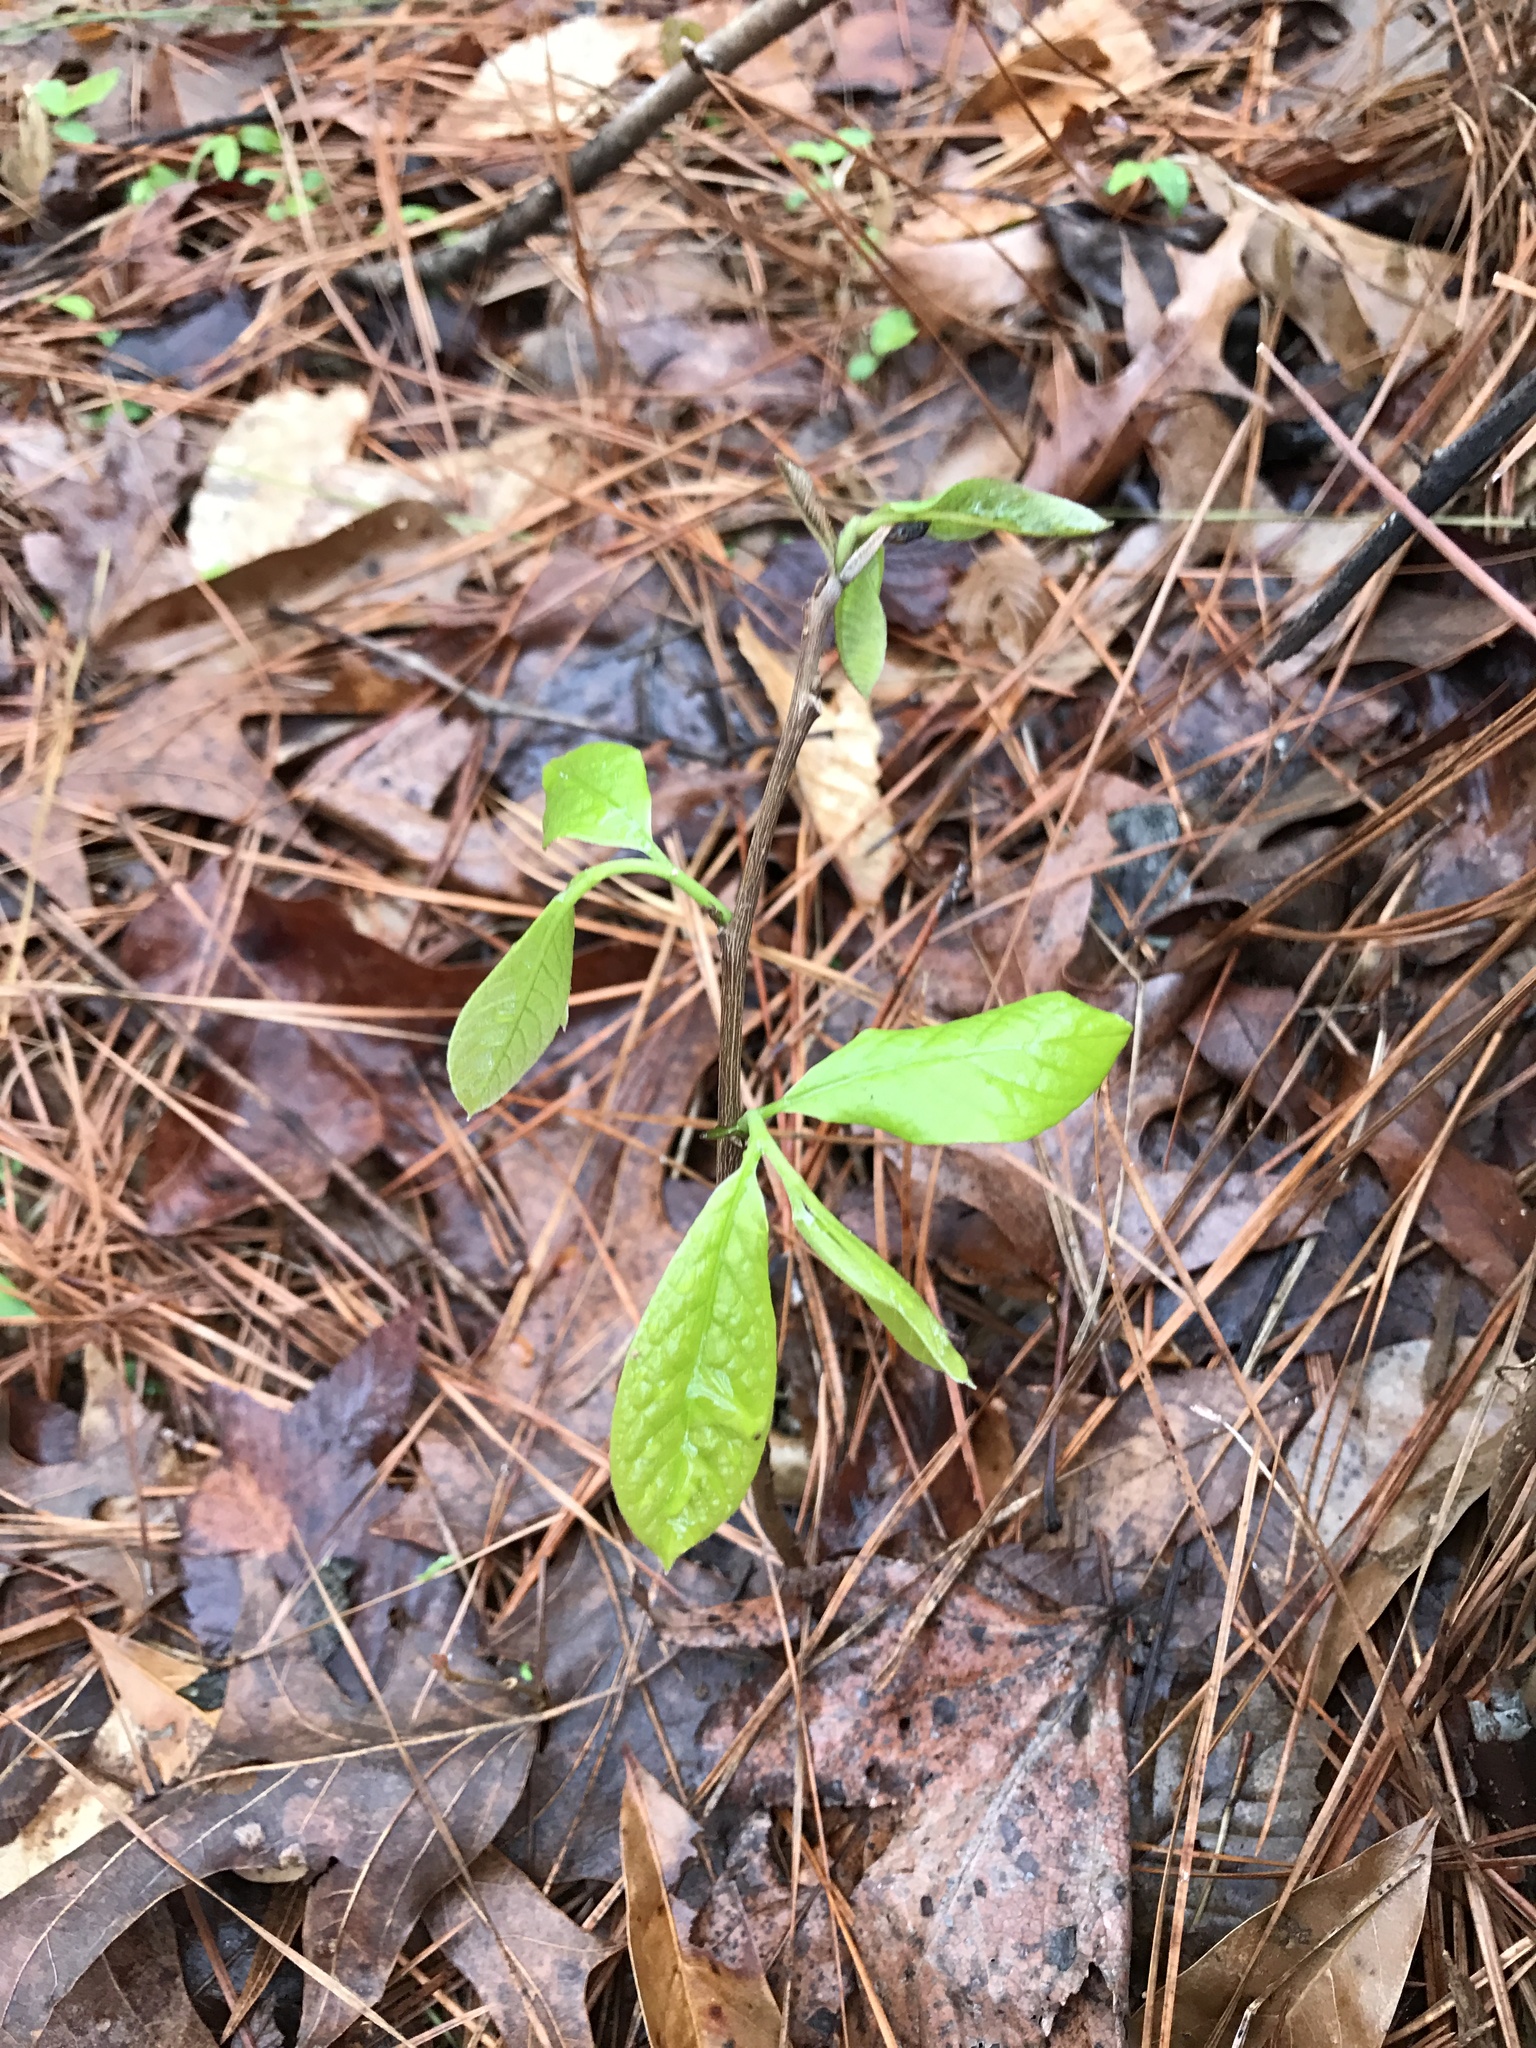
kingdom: Plantae
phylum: Tracheophyta
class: Magnoliopsida
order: Magnoliales
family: Annonaceae
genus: Asimina
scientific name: Asimina triloba
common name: Dog-banana
